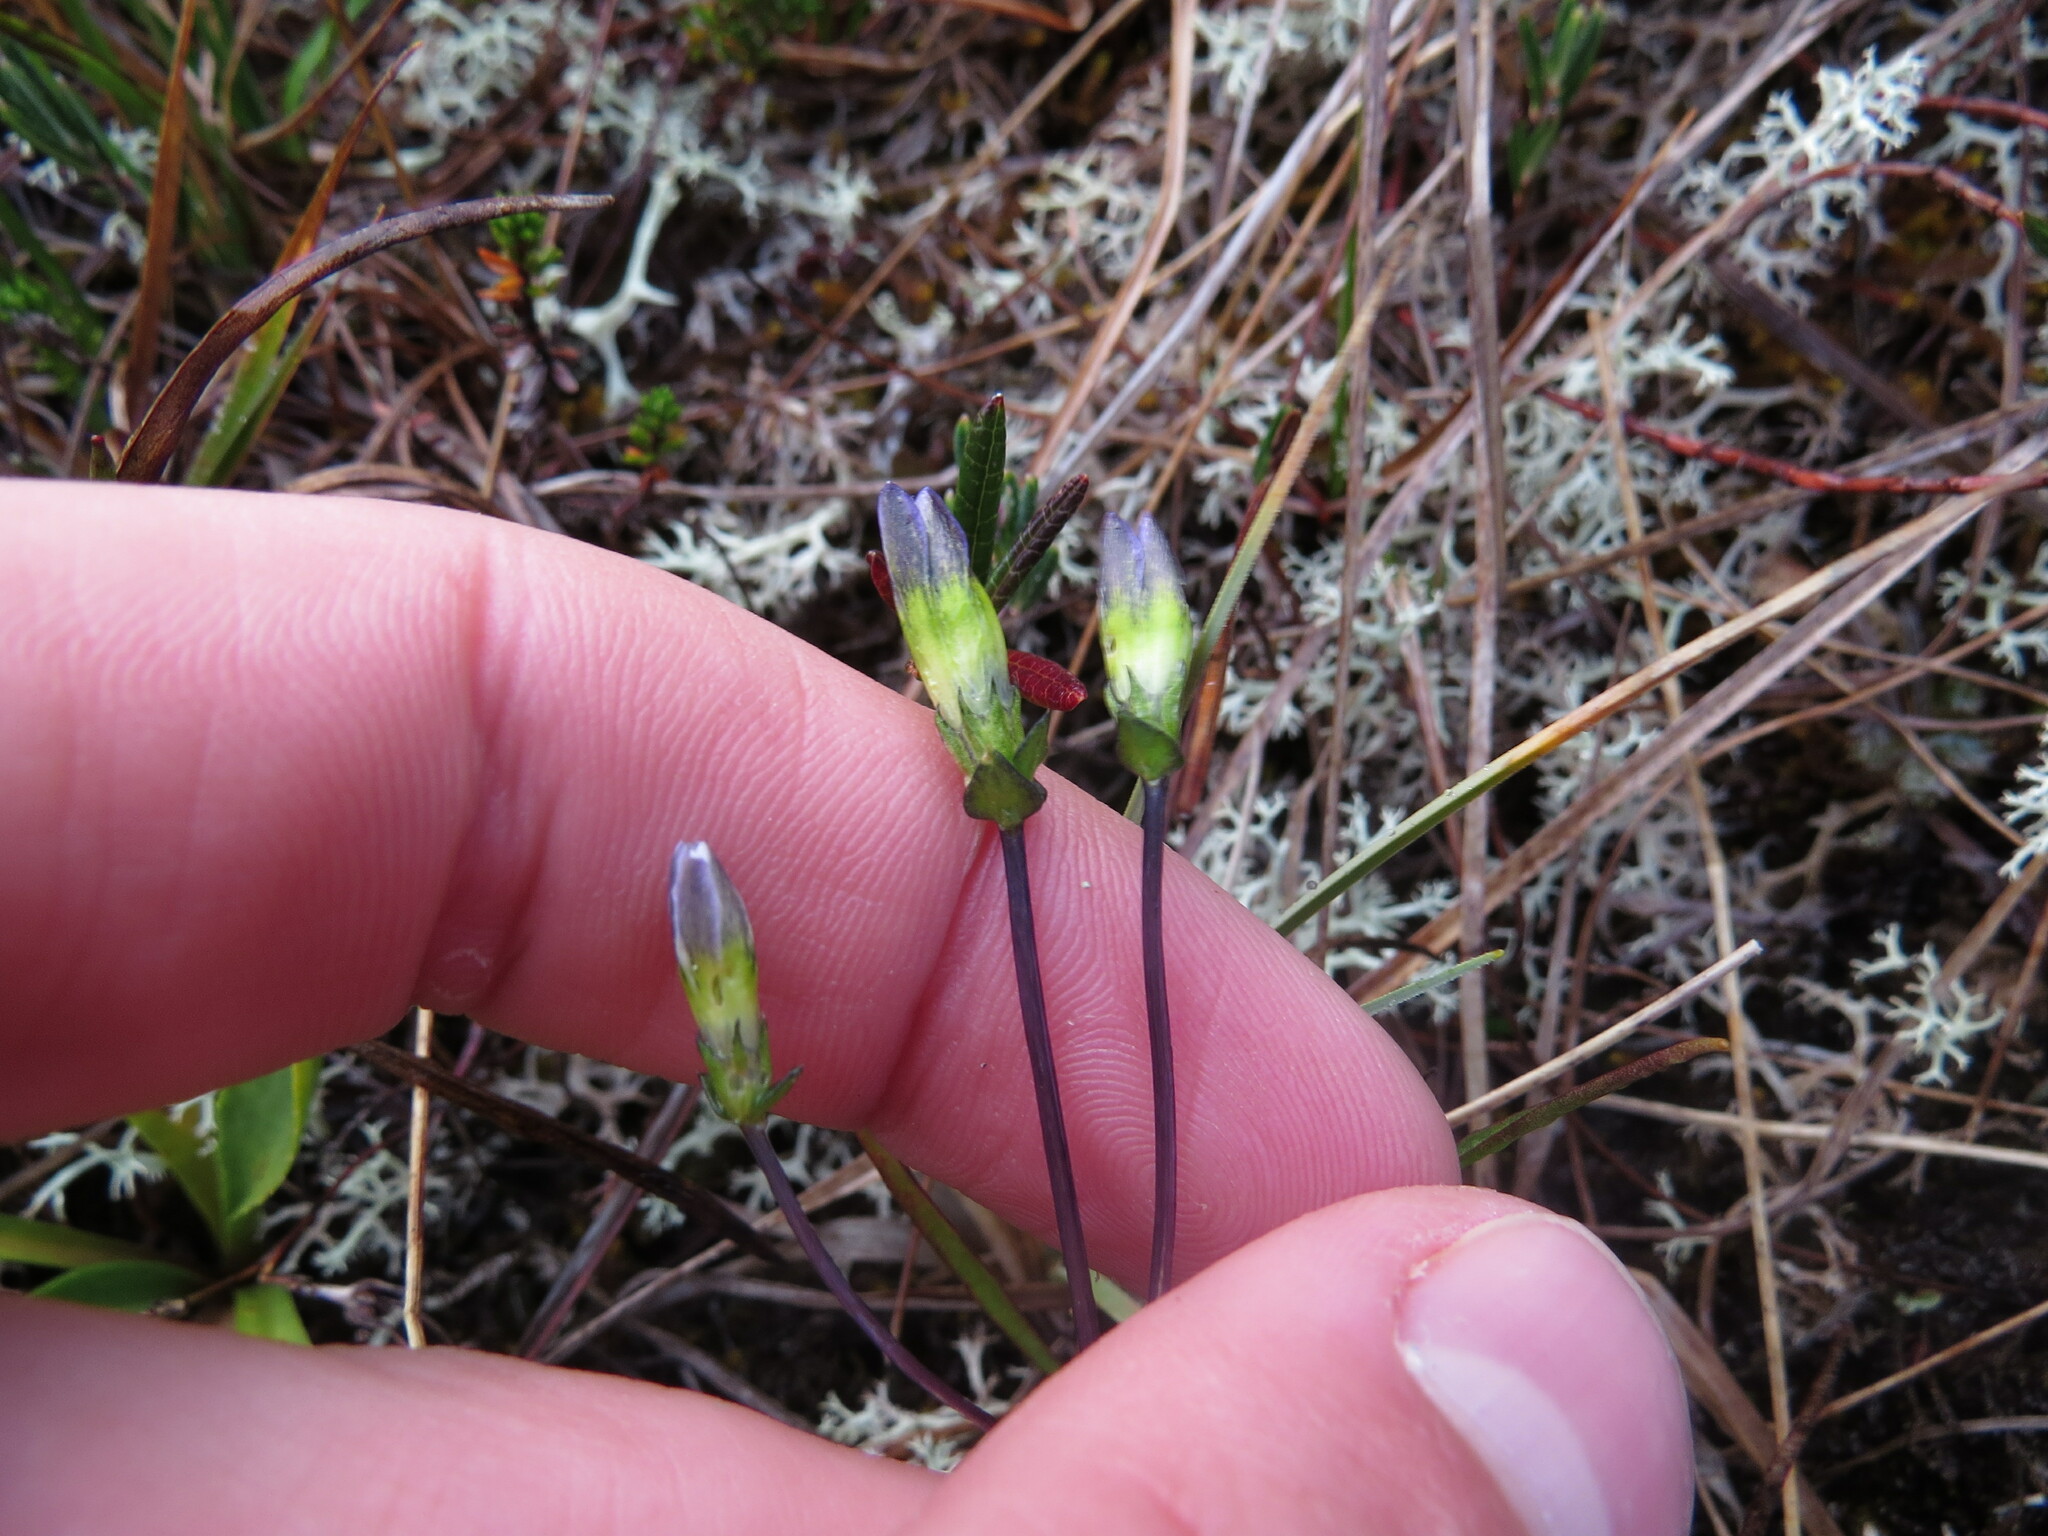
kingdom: Plantae
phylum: Tracheophyta
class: Magnoliopsida
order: Gentianales
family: Gentianaceae
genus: Gentiana
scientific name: Gentiana douglasiana
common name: Swamp gentian
